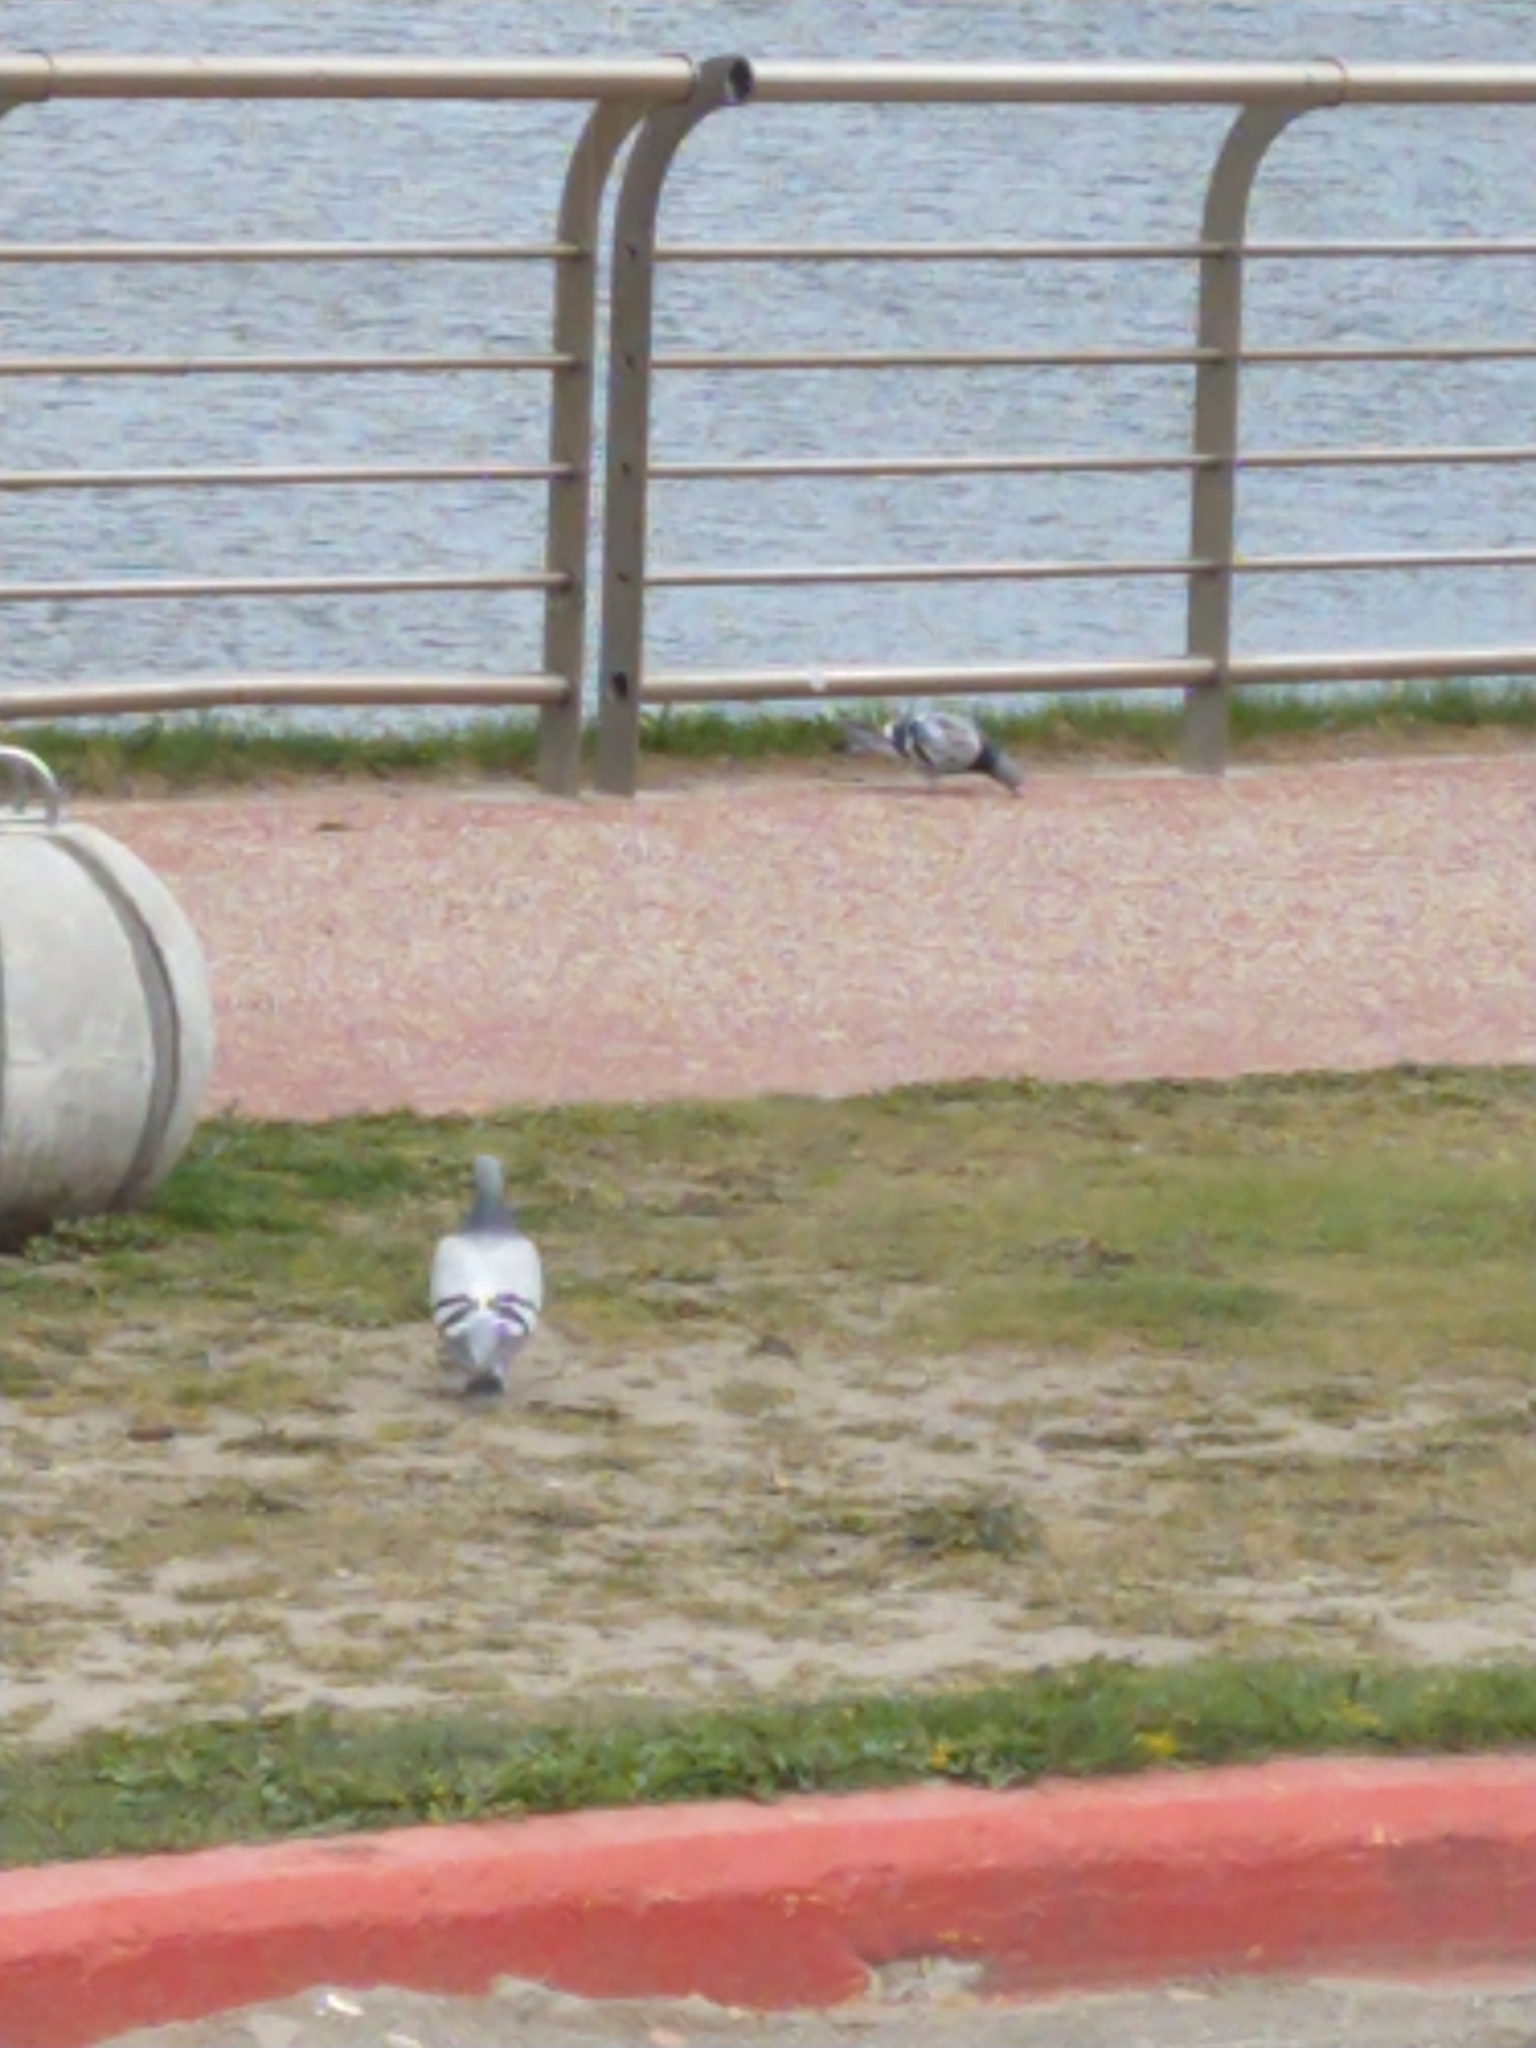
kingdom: Animalia
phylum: Chordata
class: Aves
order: Columbiformes
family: Columbidae
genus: Columba
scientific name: Columba livia
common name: Rock pigeon
